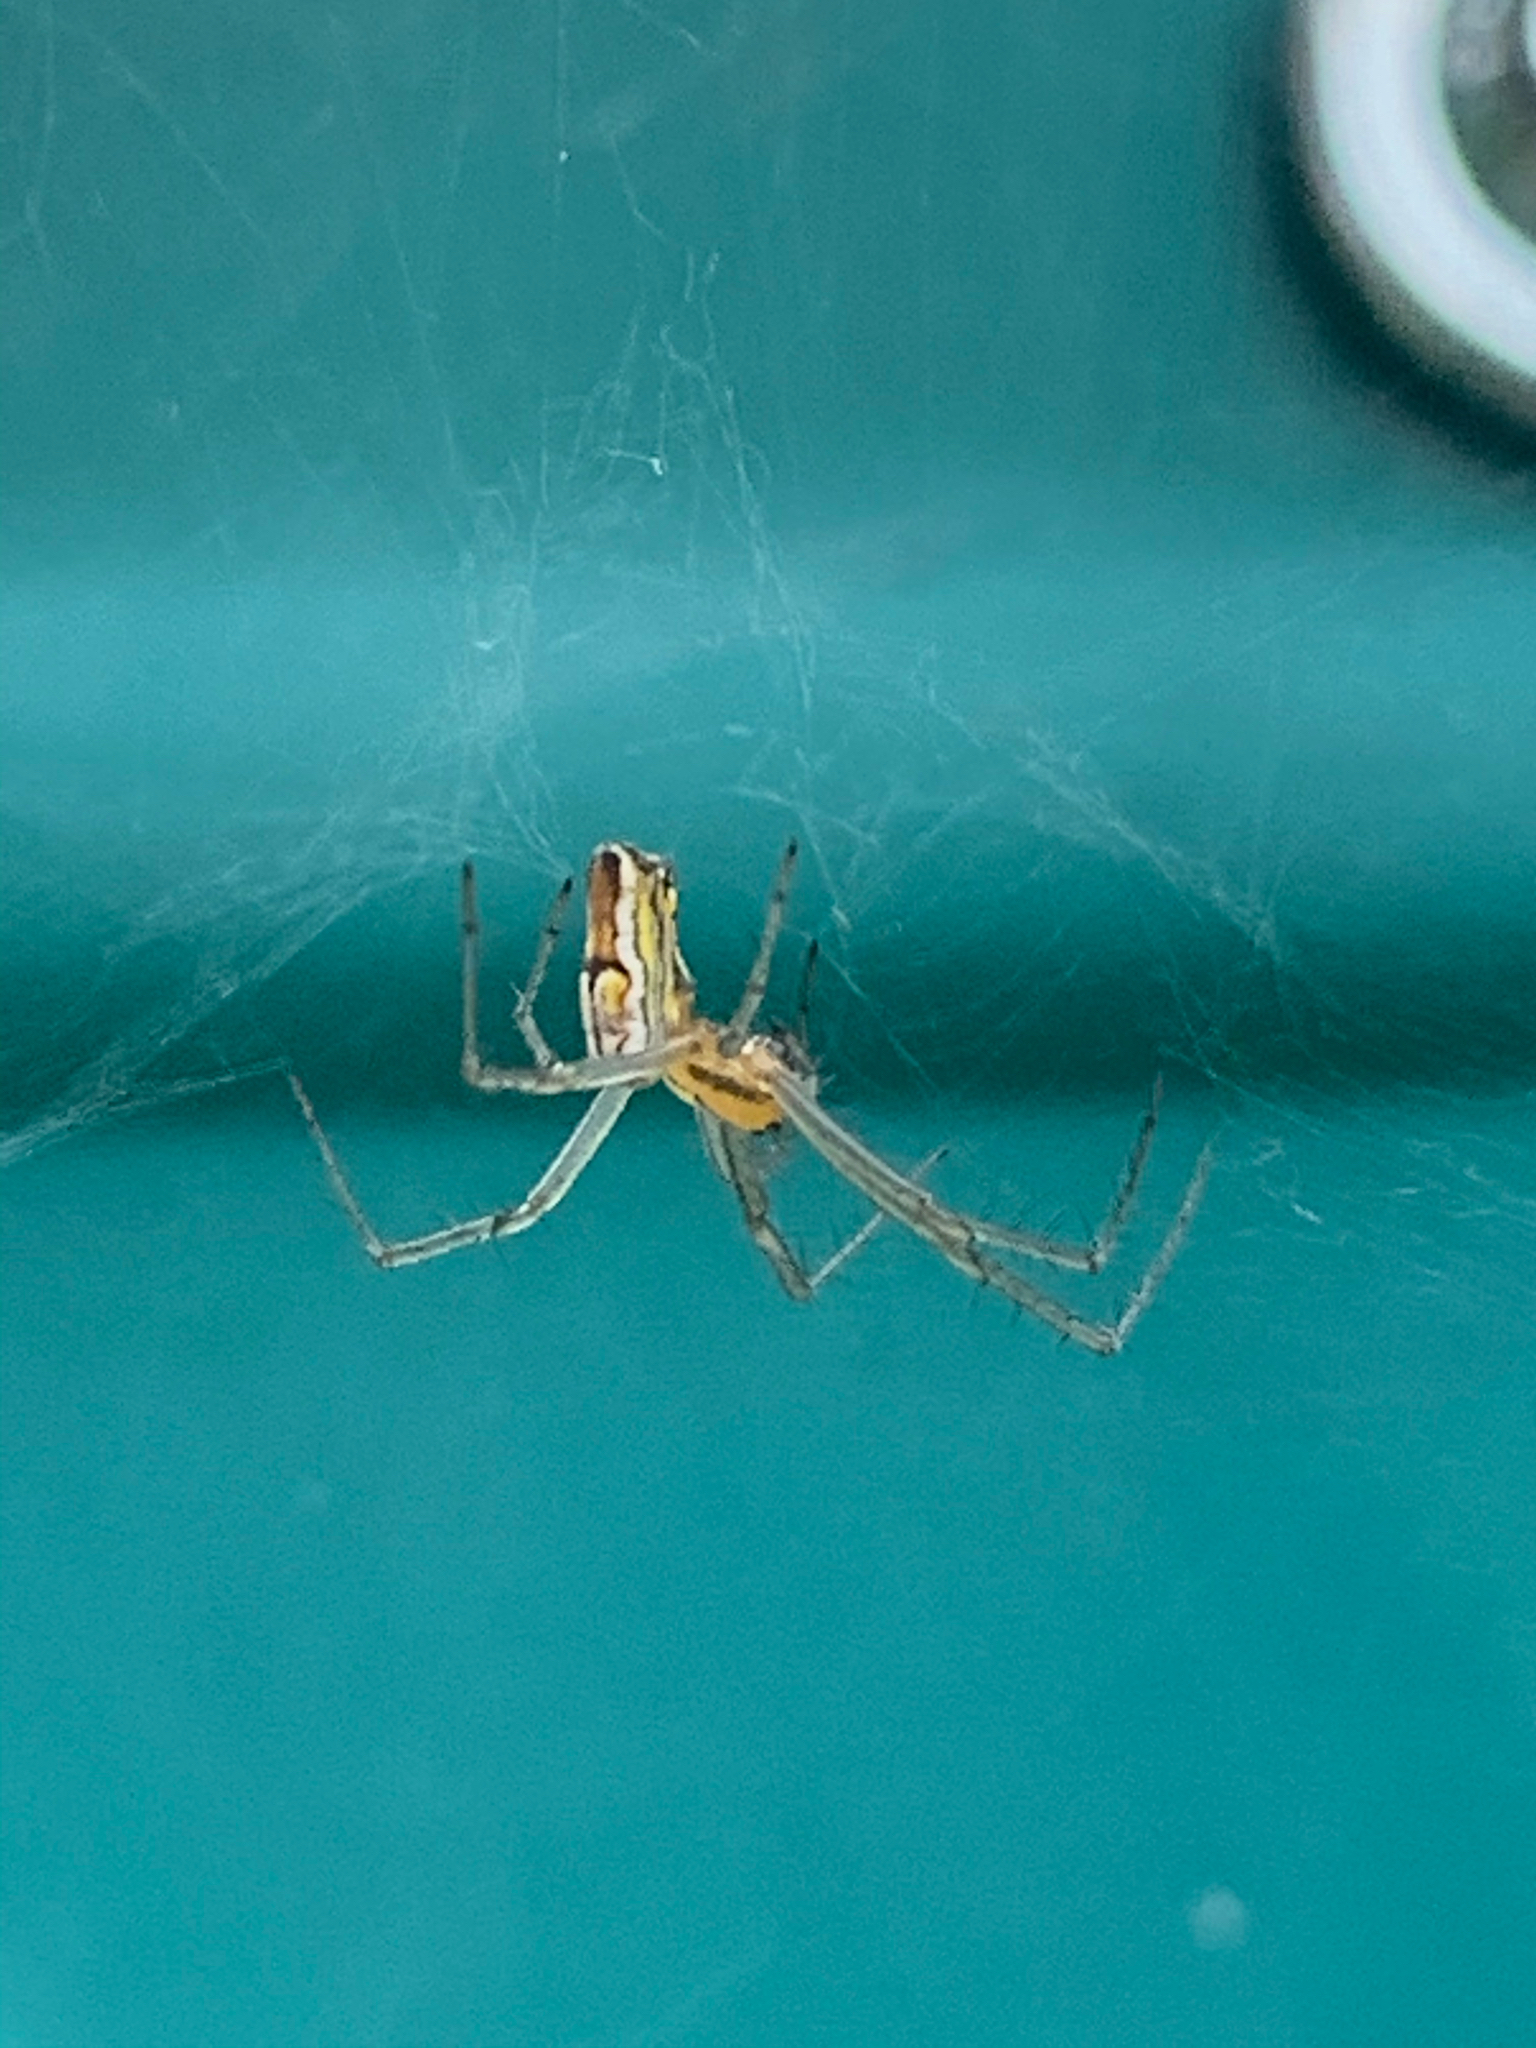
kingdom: Animalia
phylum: Arthropoda
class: Arachnida
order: Araneae
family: Araneidae
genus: Mecynogea
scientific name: Mecynogea lemniscata
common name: Orb weavers
